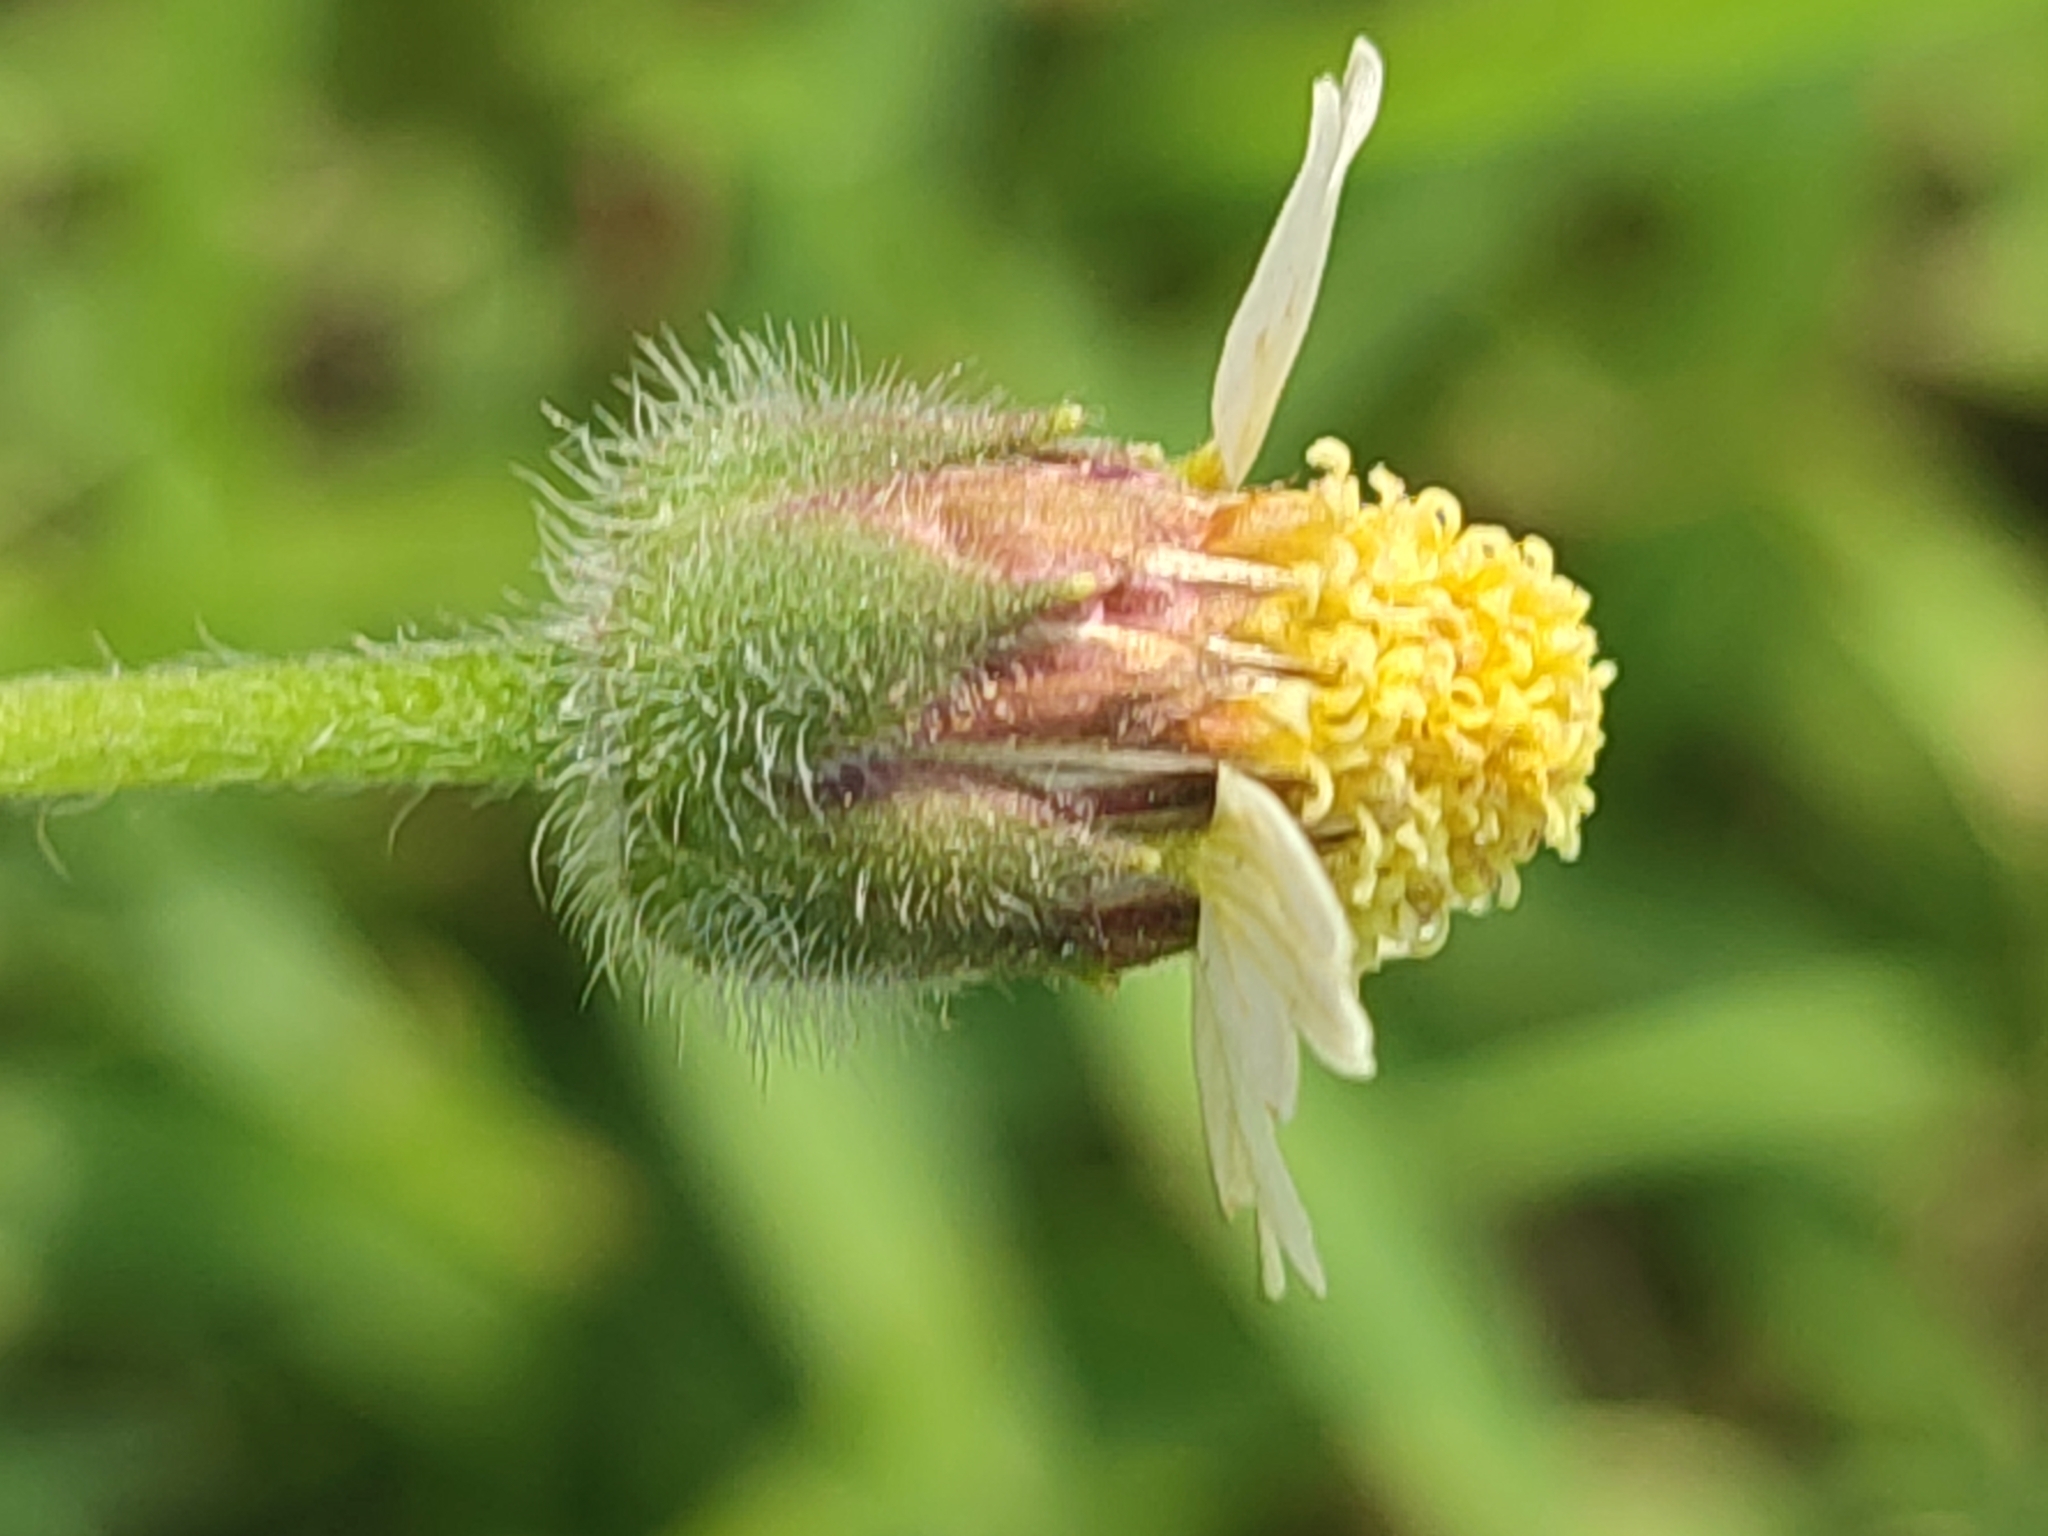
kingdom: Plantae
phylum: Tracheophyta
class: Magnoliopsida
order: Asterales
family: Asteraceae
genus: Tridax
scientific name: Tridax procumbens
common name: Coatbuttons
